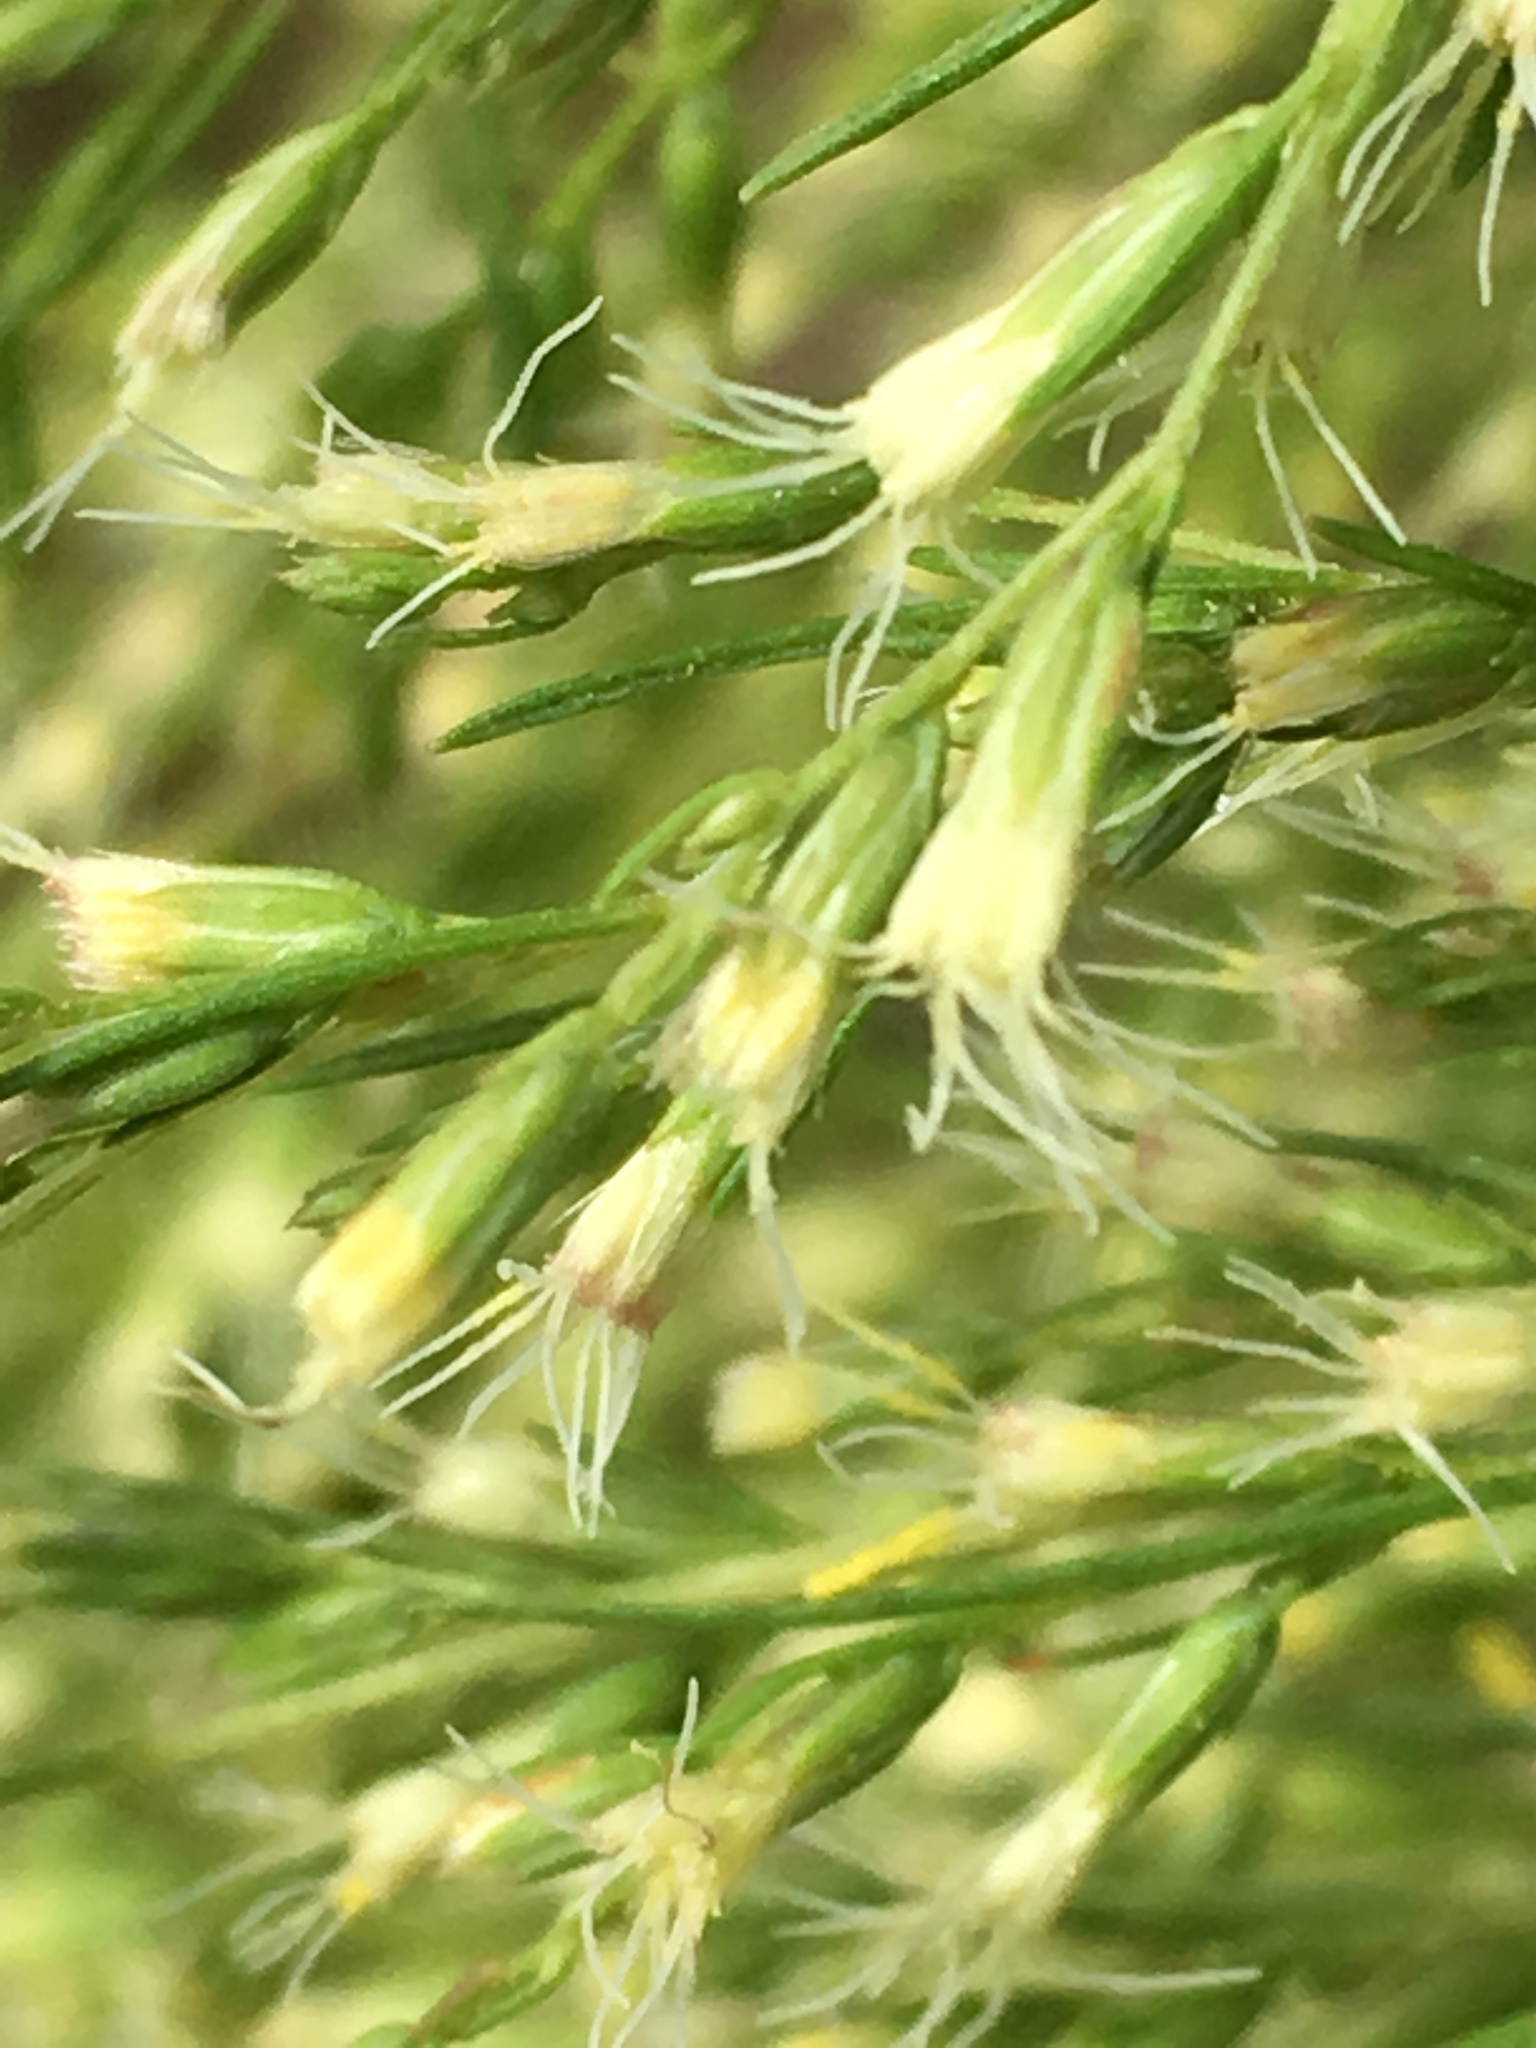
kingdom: Plantae
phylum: Tracheophyta
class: Magnoliopsida
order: Asterales
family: Asteraceae
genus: Eupatorium
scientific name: Eupatorium capillifolium
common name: Dog-fennel
